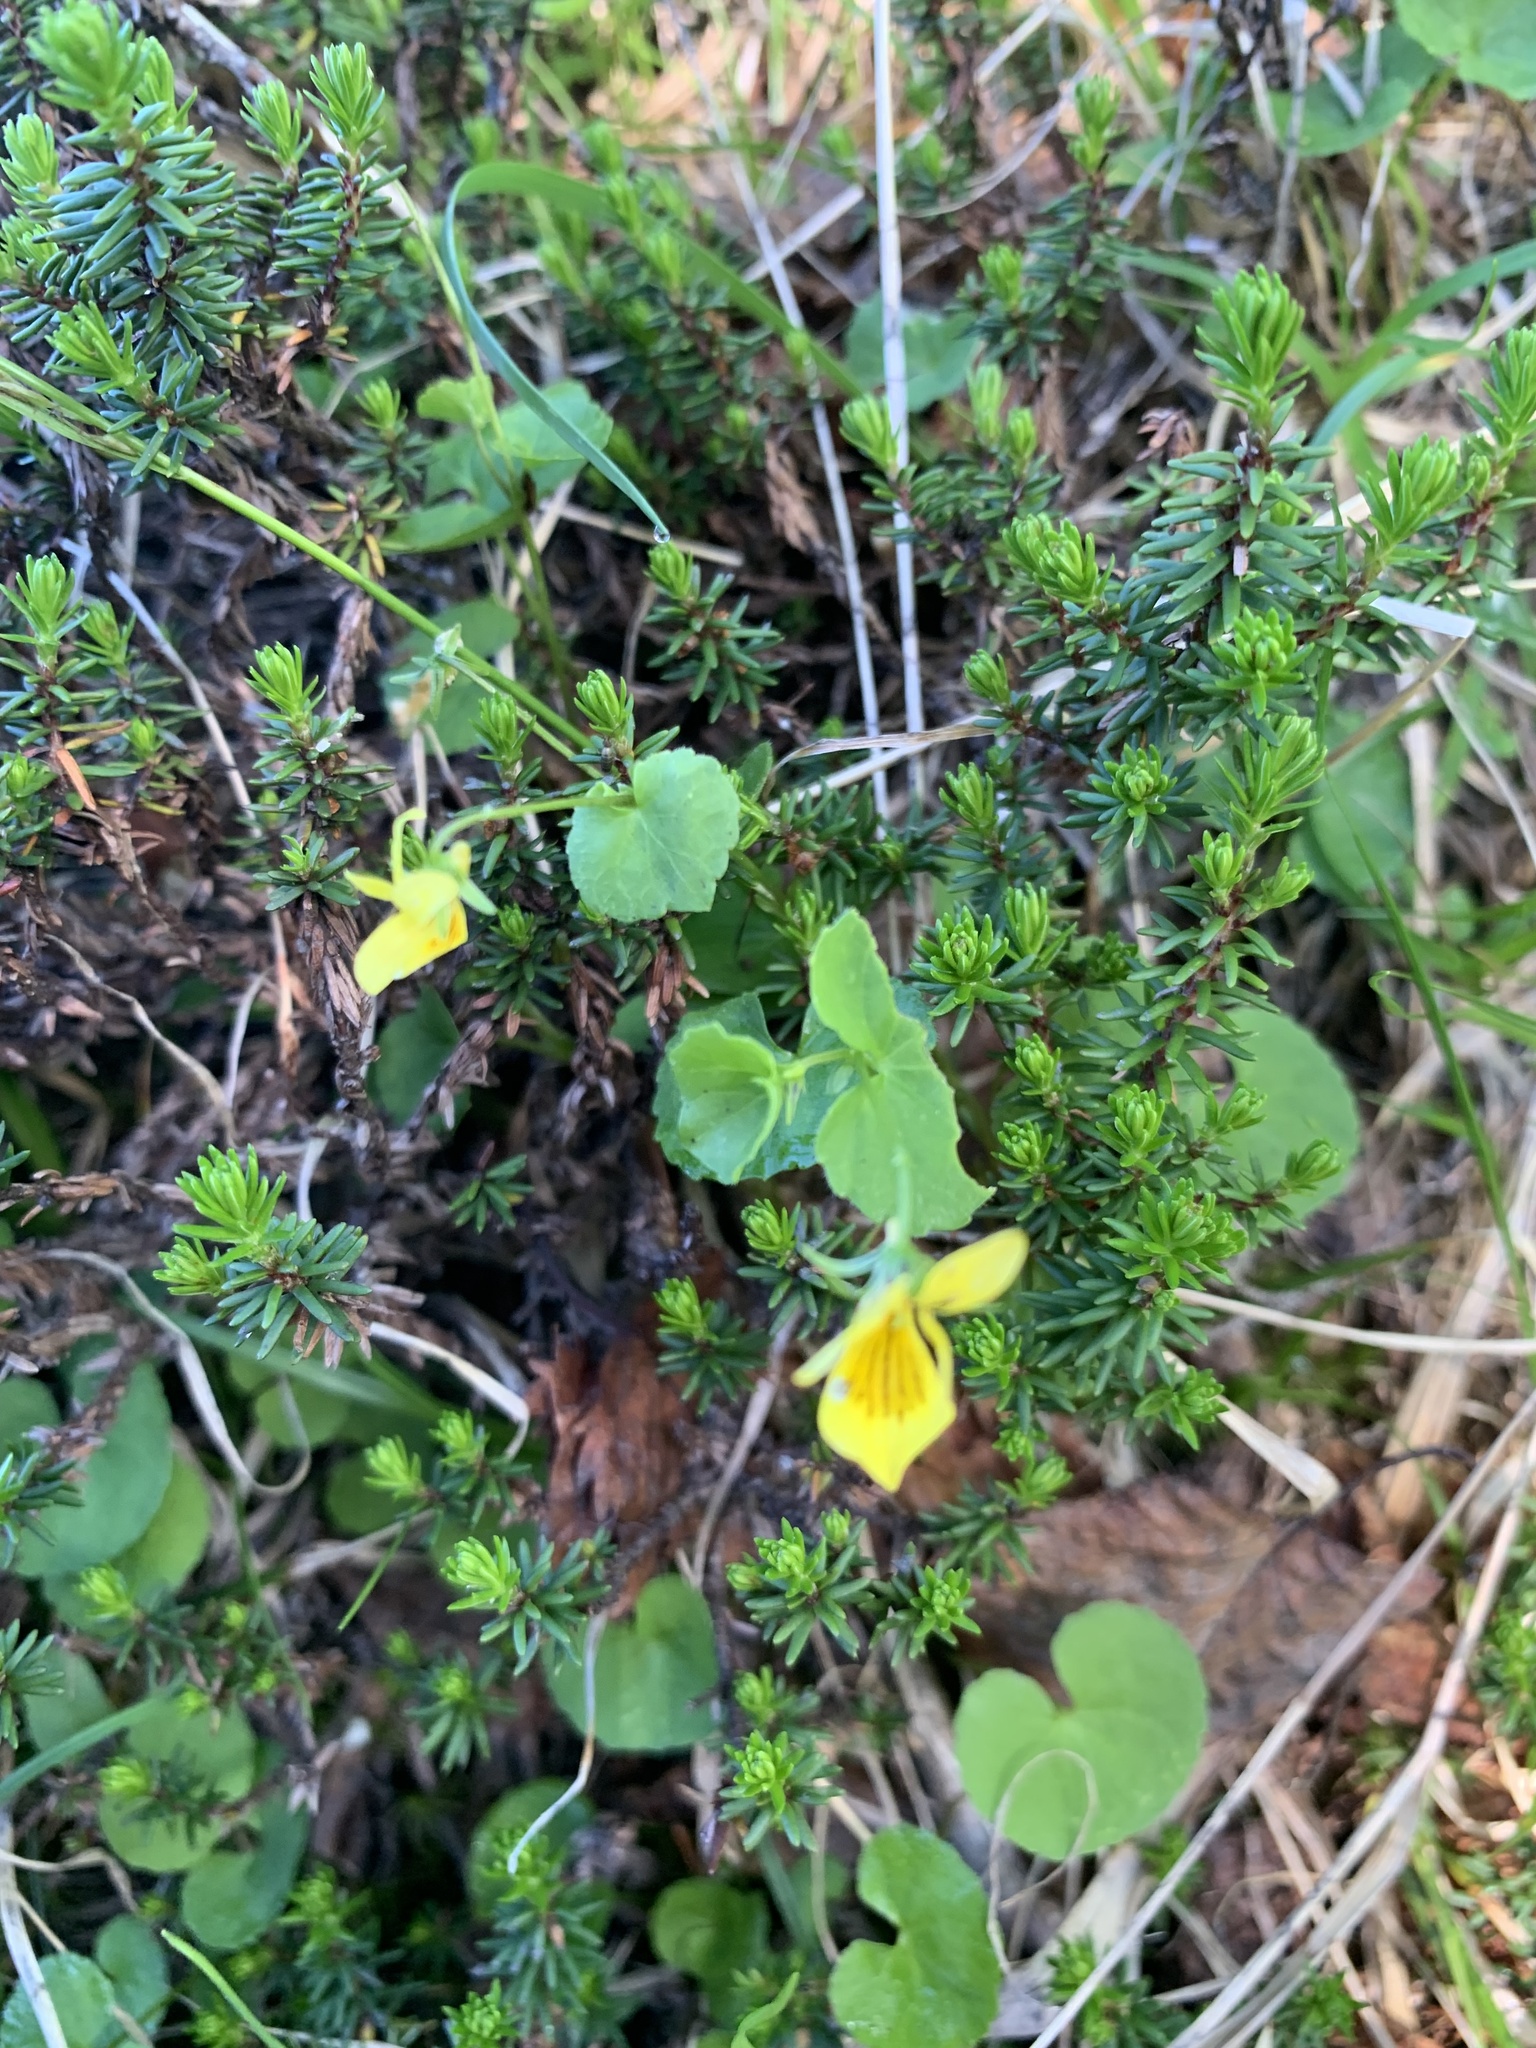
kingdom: Plantae
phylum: Tracheophyta
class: Magnoliopsida
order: Malpighiales
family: Violaceae
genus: Viola
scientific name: Viola biflora
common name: Alpine yellow violet
